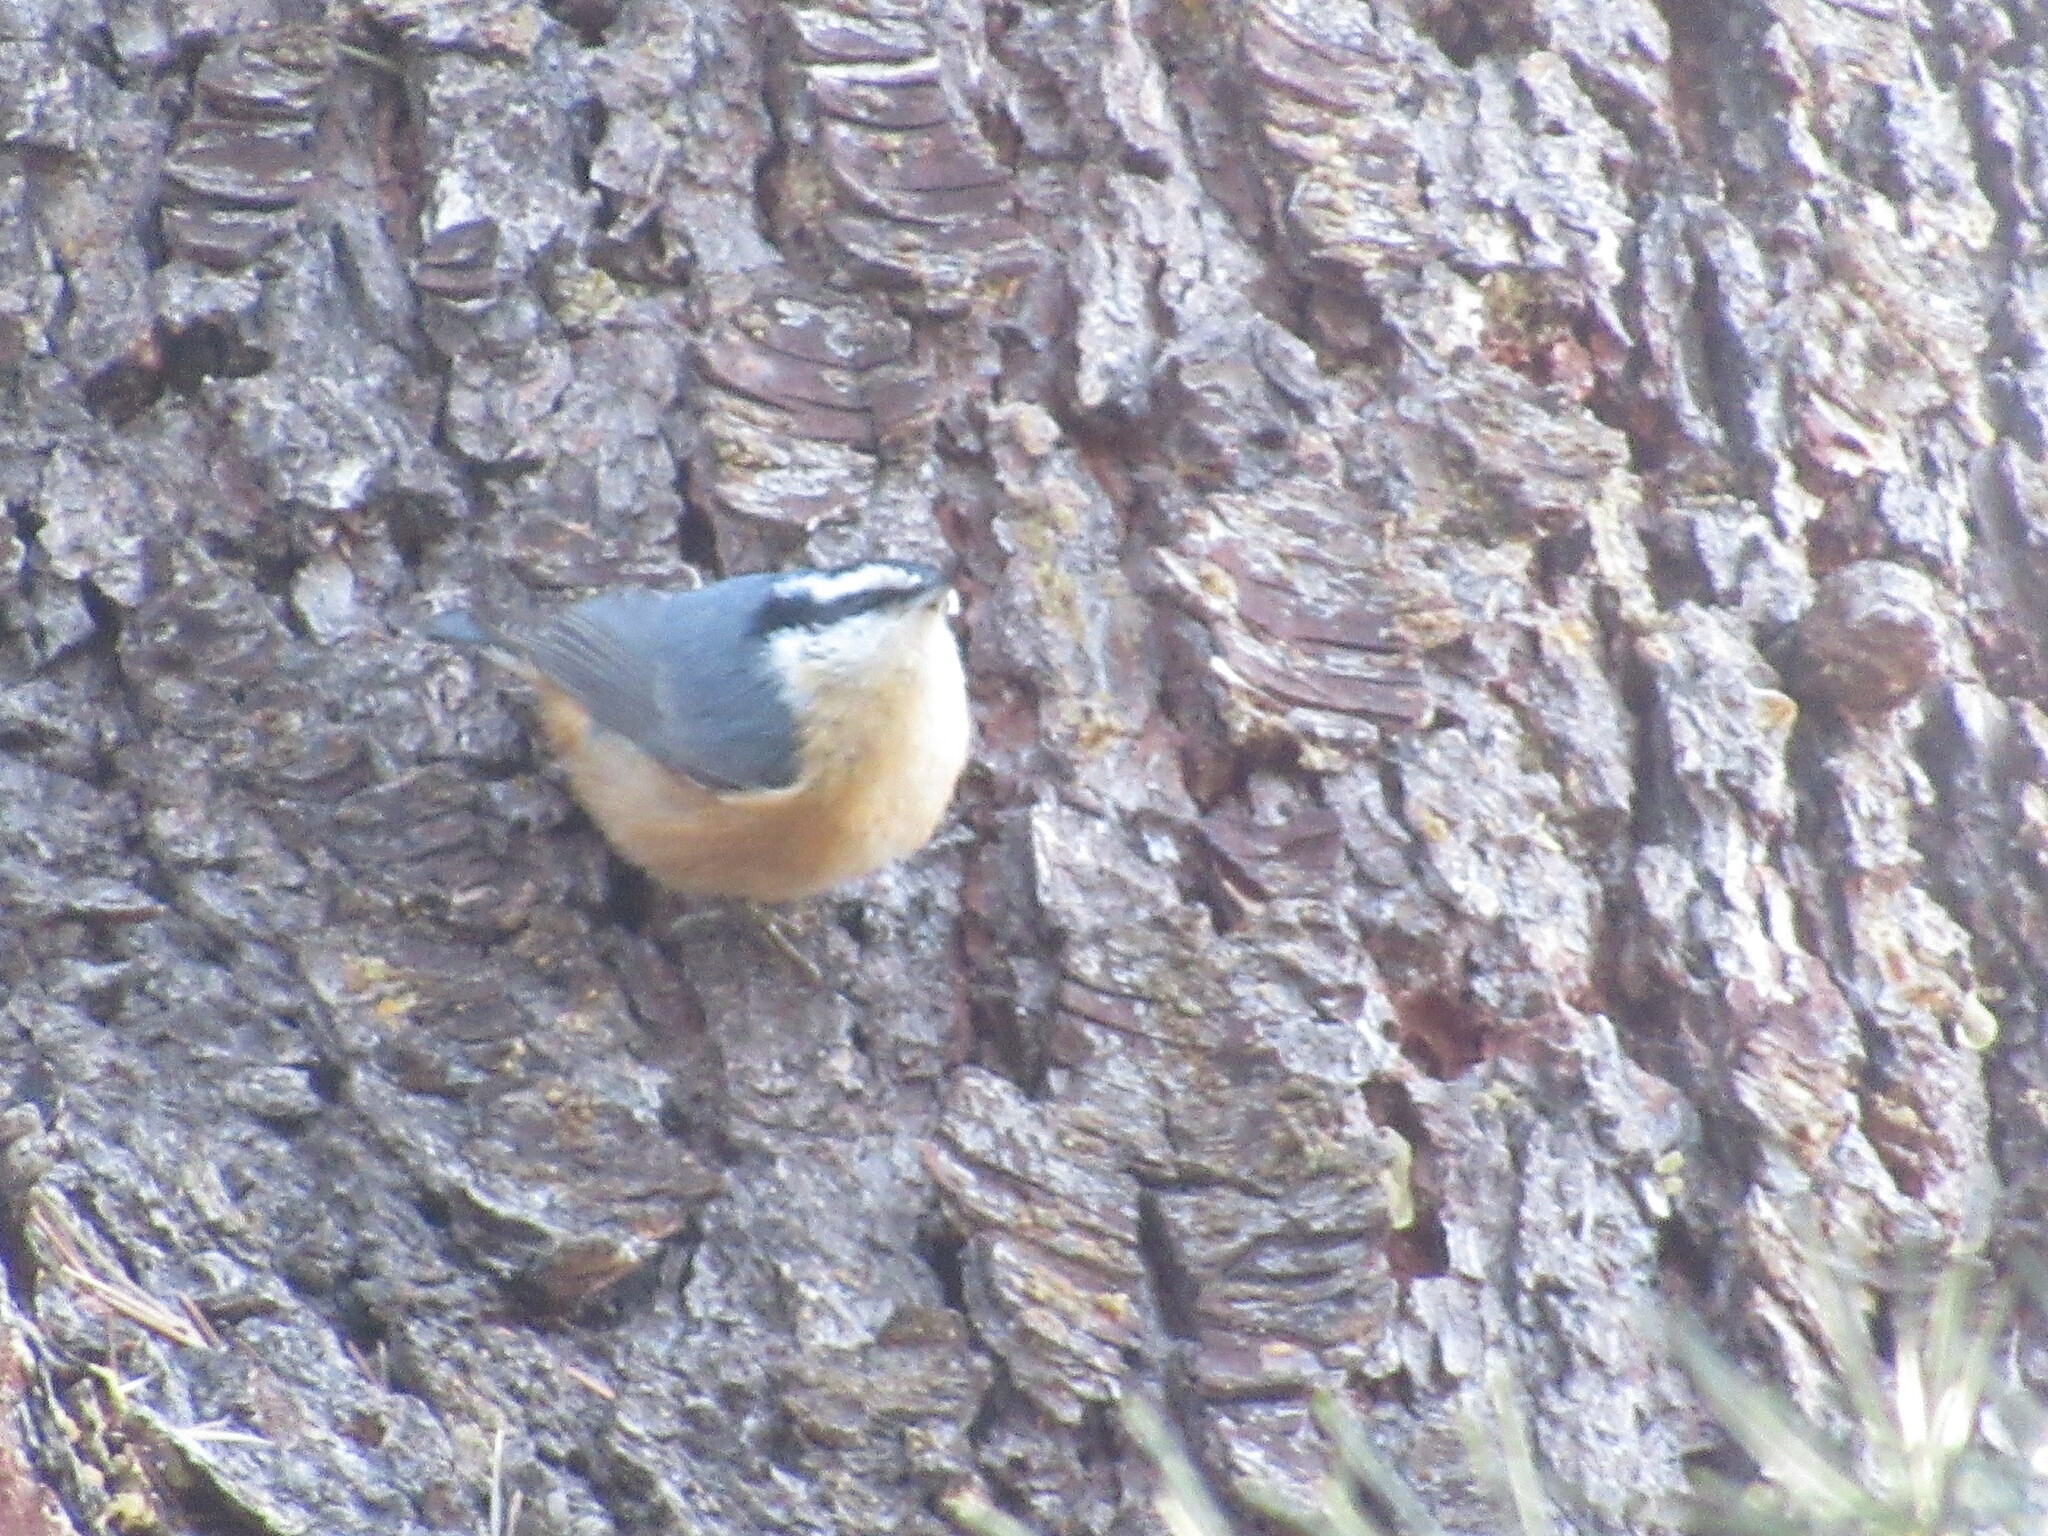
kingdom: Animalia
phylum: Chordata
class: Aves
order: Passeriformes
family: Sittidae
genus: Sitta
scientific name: Sitta canadensis
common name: Red-breasted nuthatch
